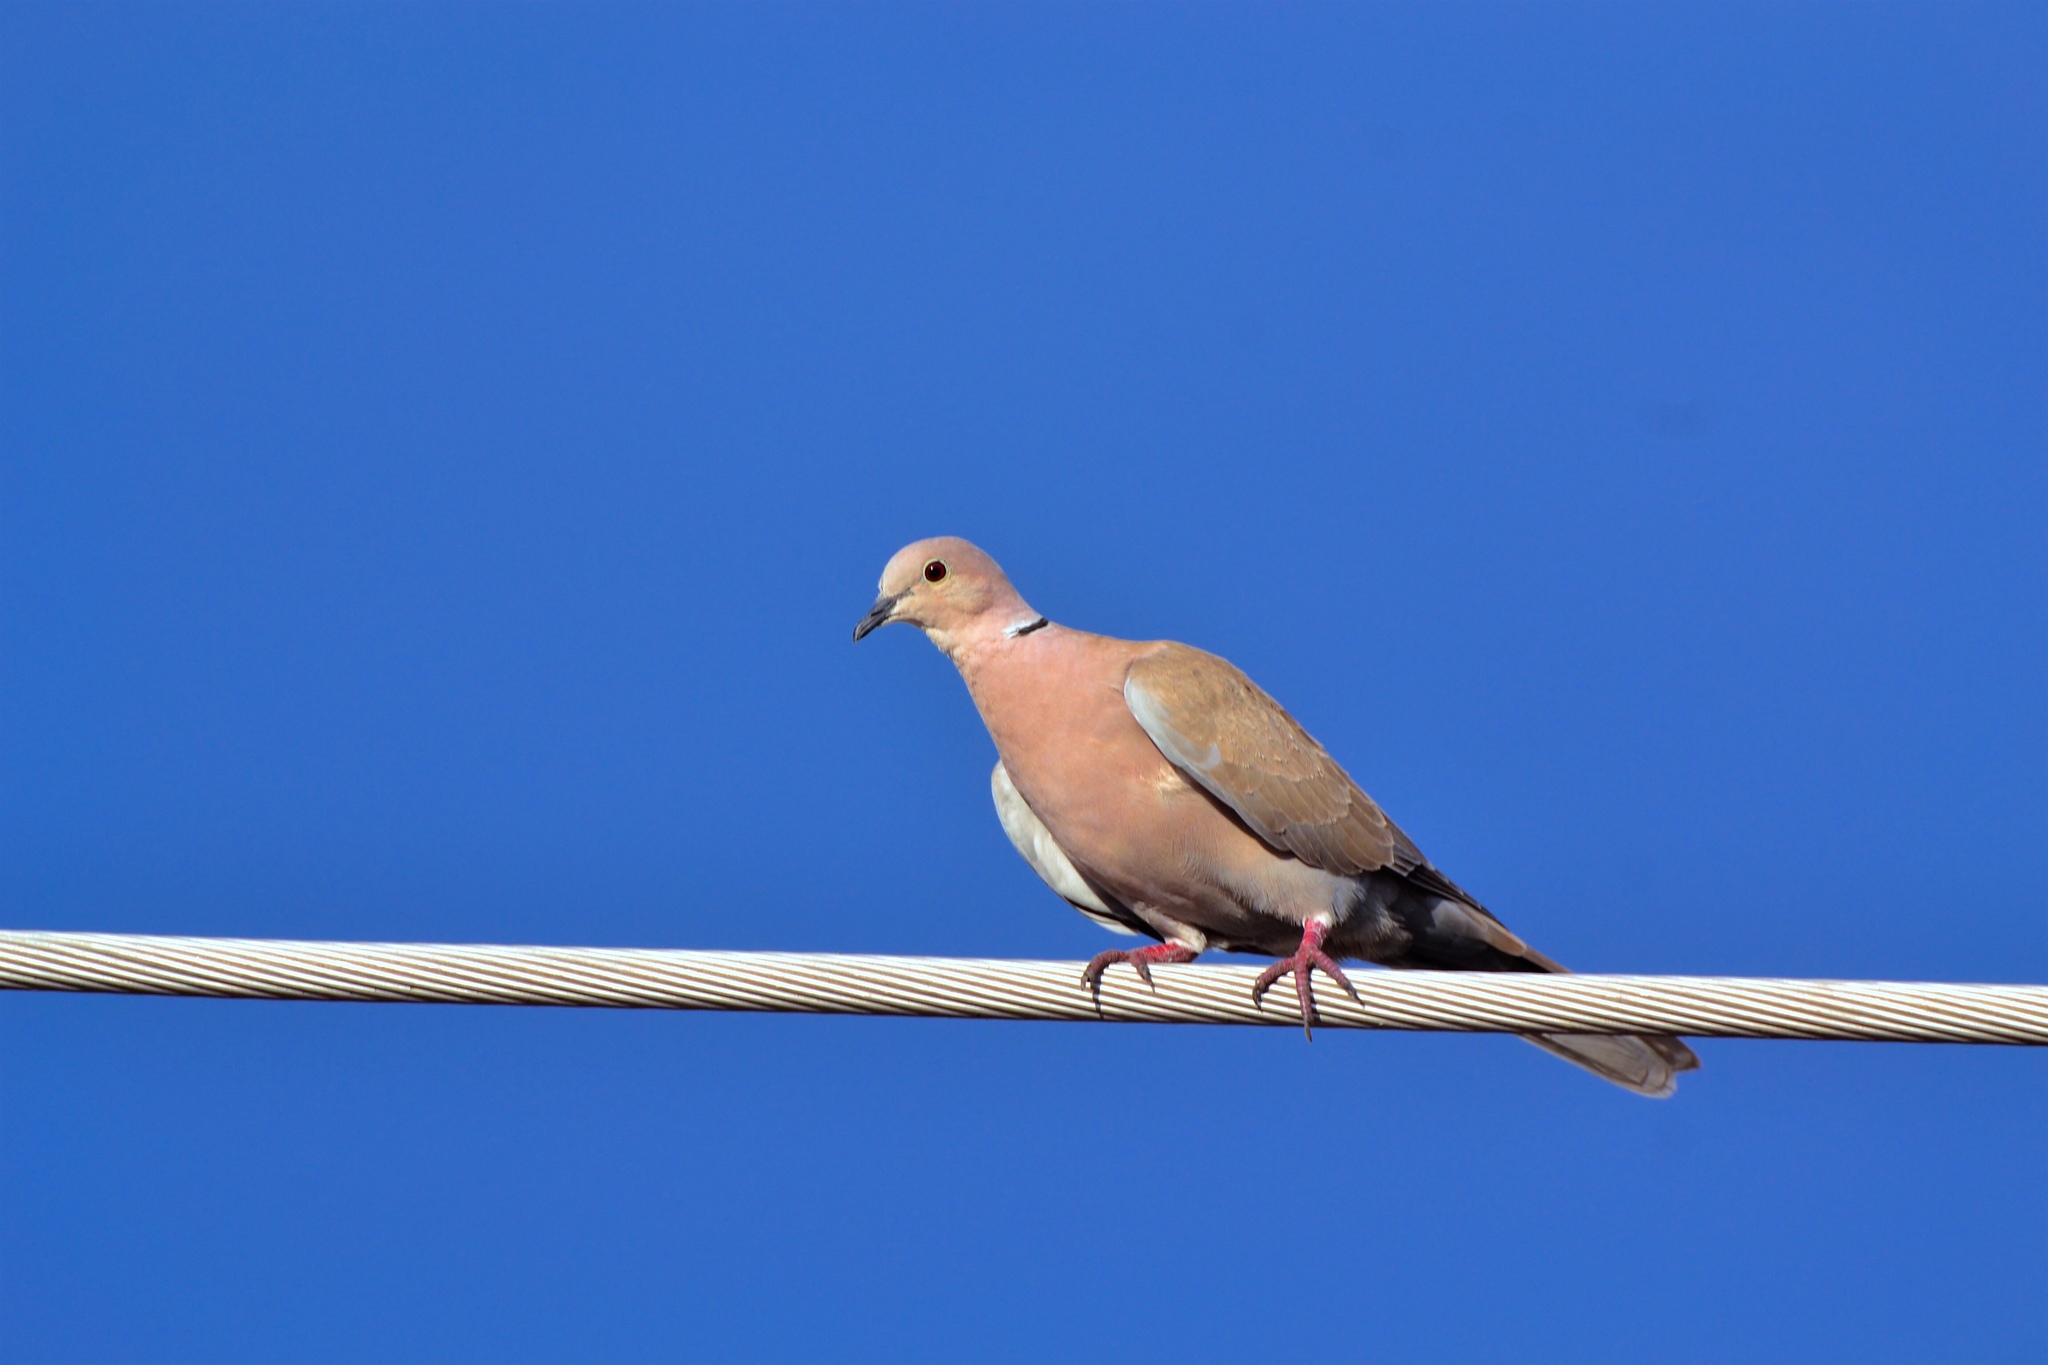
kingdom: Animalia
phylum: Chordata
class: Aves
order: Columbiformes
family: Columbidae
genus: Streptopelia
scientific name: Streptopelia decaocto
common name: Eurasian collared dove
